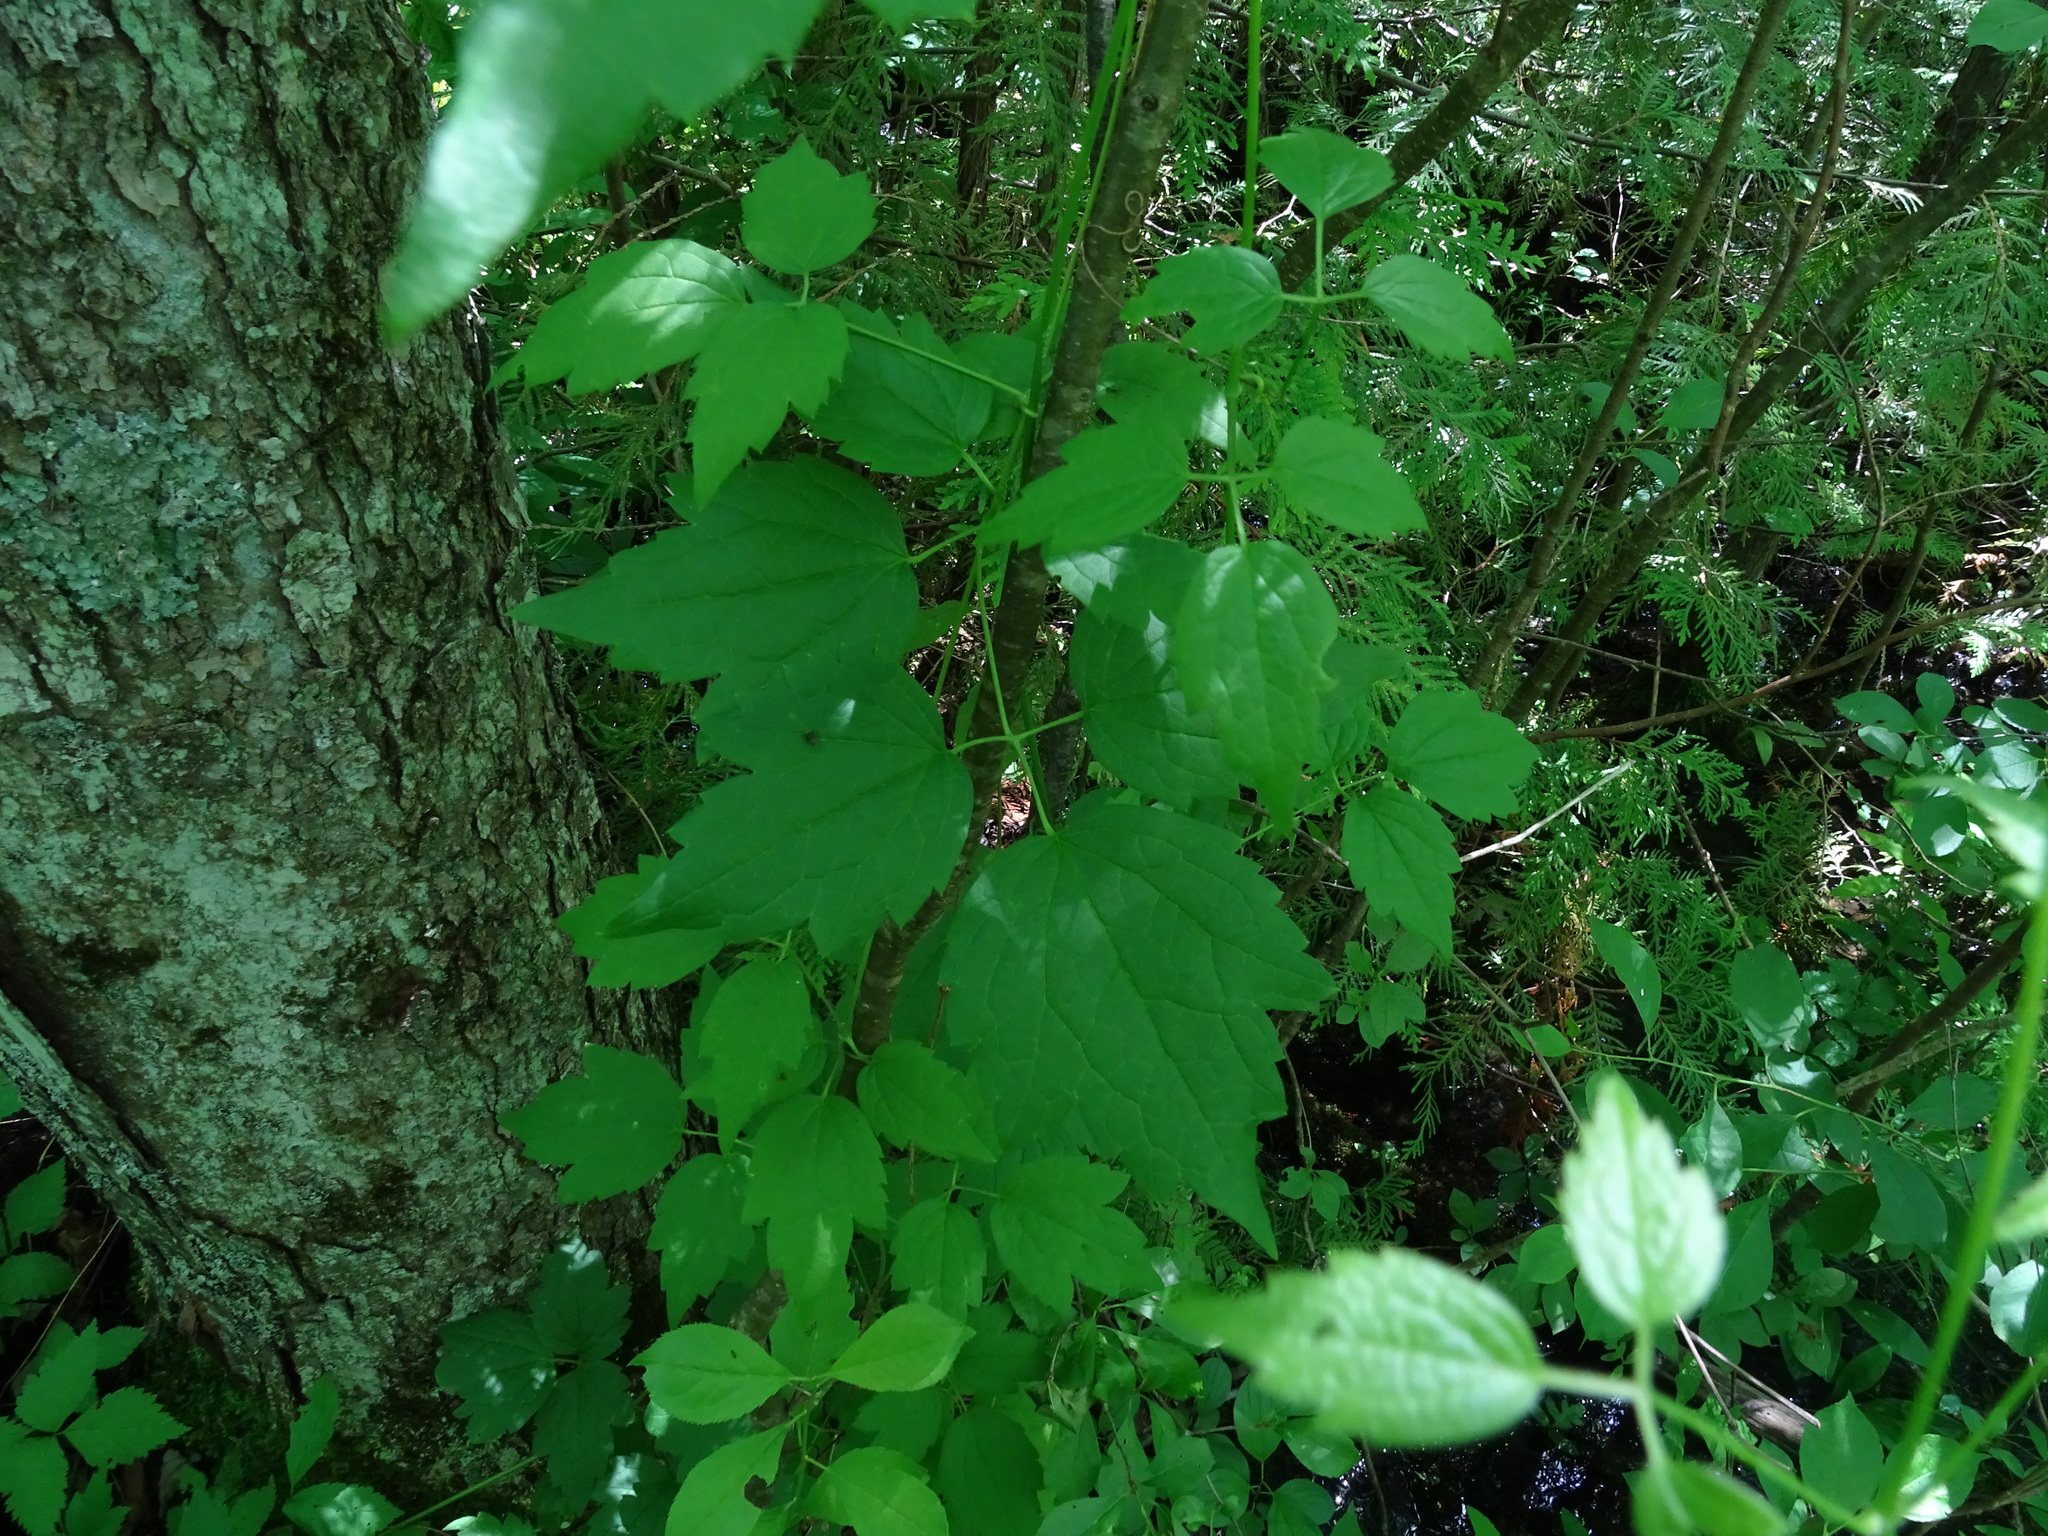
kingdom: Plantae
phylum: Tracheophyta
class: Magnoliopsida
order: Ranunculales
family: Ranunculaceae
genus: Clematis
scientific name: Clematis virginiana
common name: Virgin's-bower
